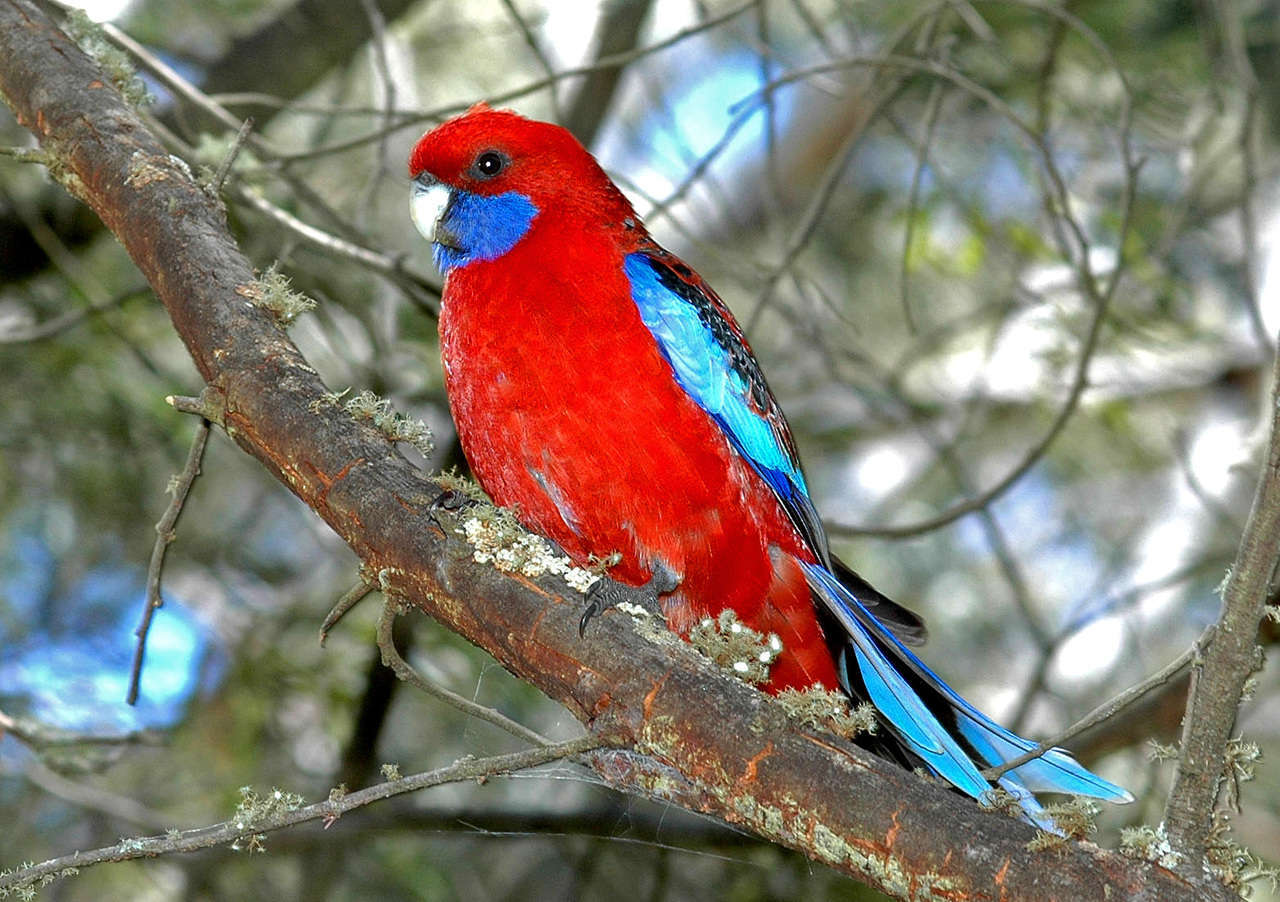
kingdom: Animalia
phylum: Chordata
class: Aves
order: Psittaciformes
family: Psittacidae
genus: Platycercus
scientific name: Platycercus elegans
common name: Crimson rosella
